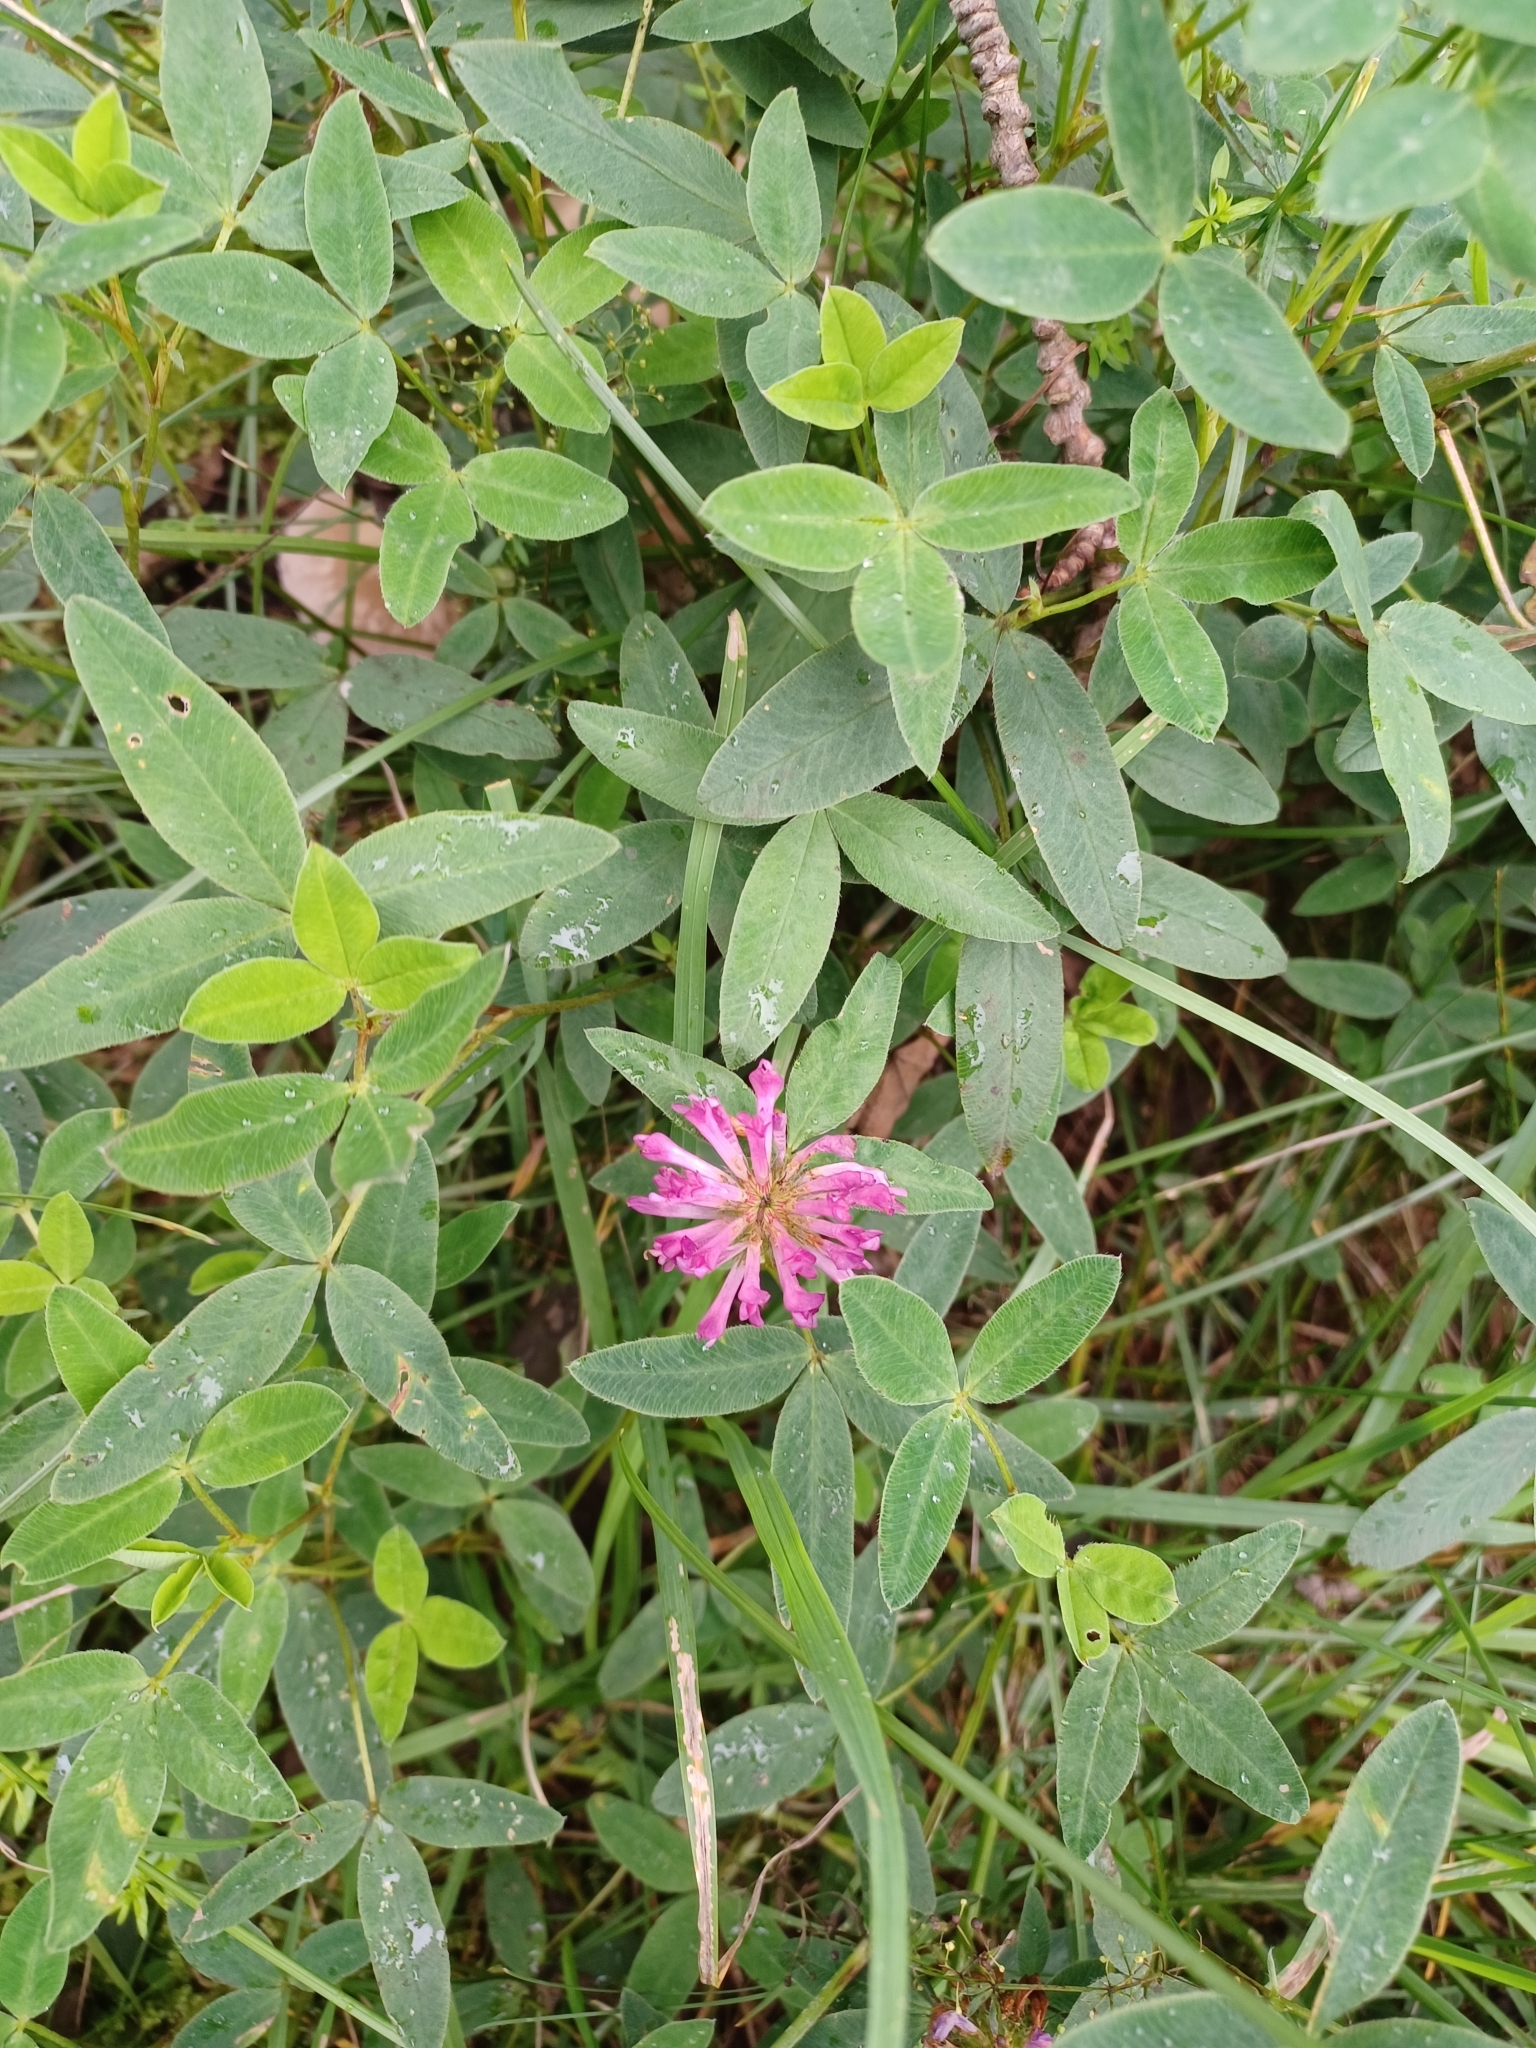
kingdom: Plantae
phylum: Tracheophyta
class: Magnoliopsida
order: Fabales
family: Fabaceae
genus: Trifolium
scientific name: Trifolium medium
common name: Zigzag clover
